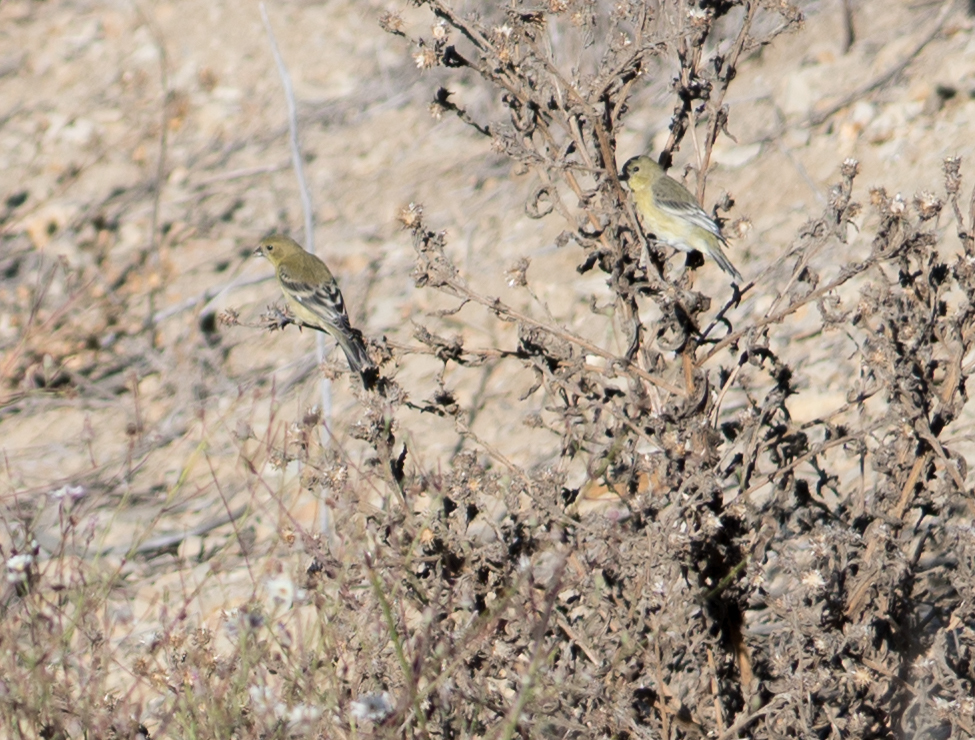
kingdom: Animalia
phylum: Chordata
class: Aves
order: Passeriformes
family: Fringillidae
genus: Spinus
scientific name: Spinus psaltria
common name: Lesser goldfinch
